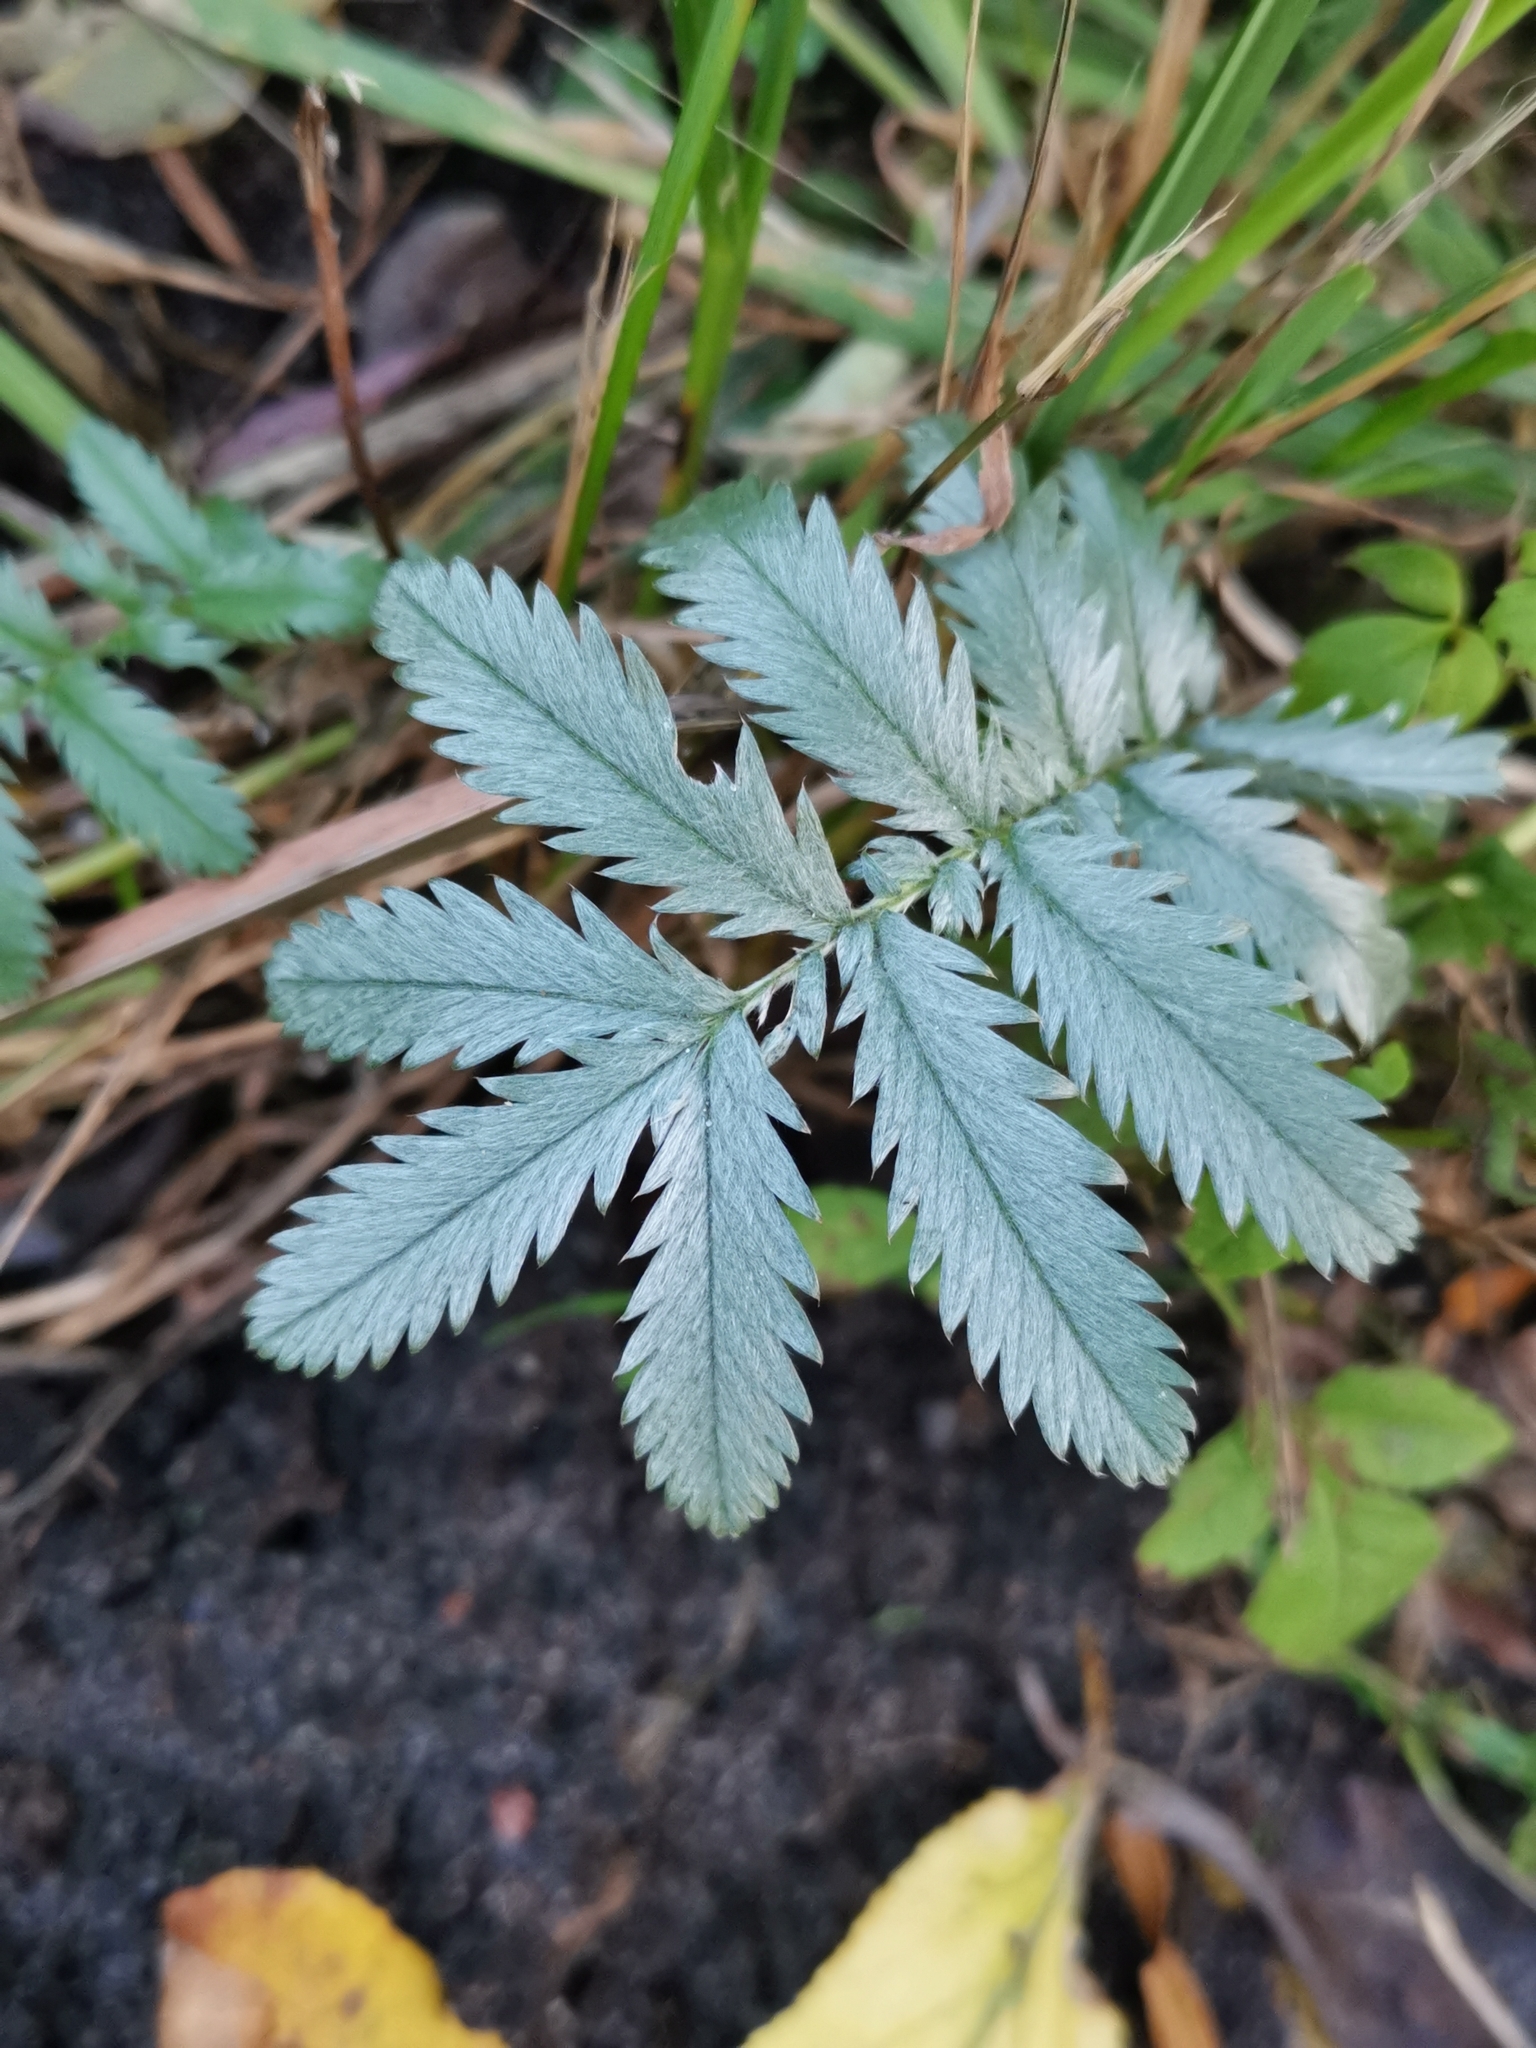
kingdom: Plantae
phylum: Tracheophyta
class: Magnoliopsida
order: Rosales
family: Rosaceae
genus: Argentina
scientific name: Argentina anserina
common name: Common silverweed
